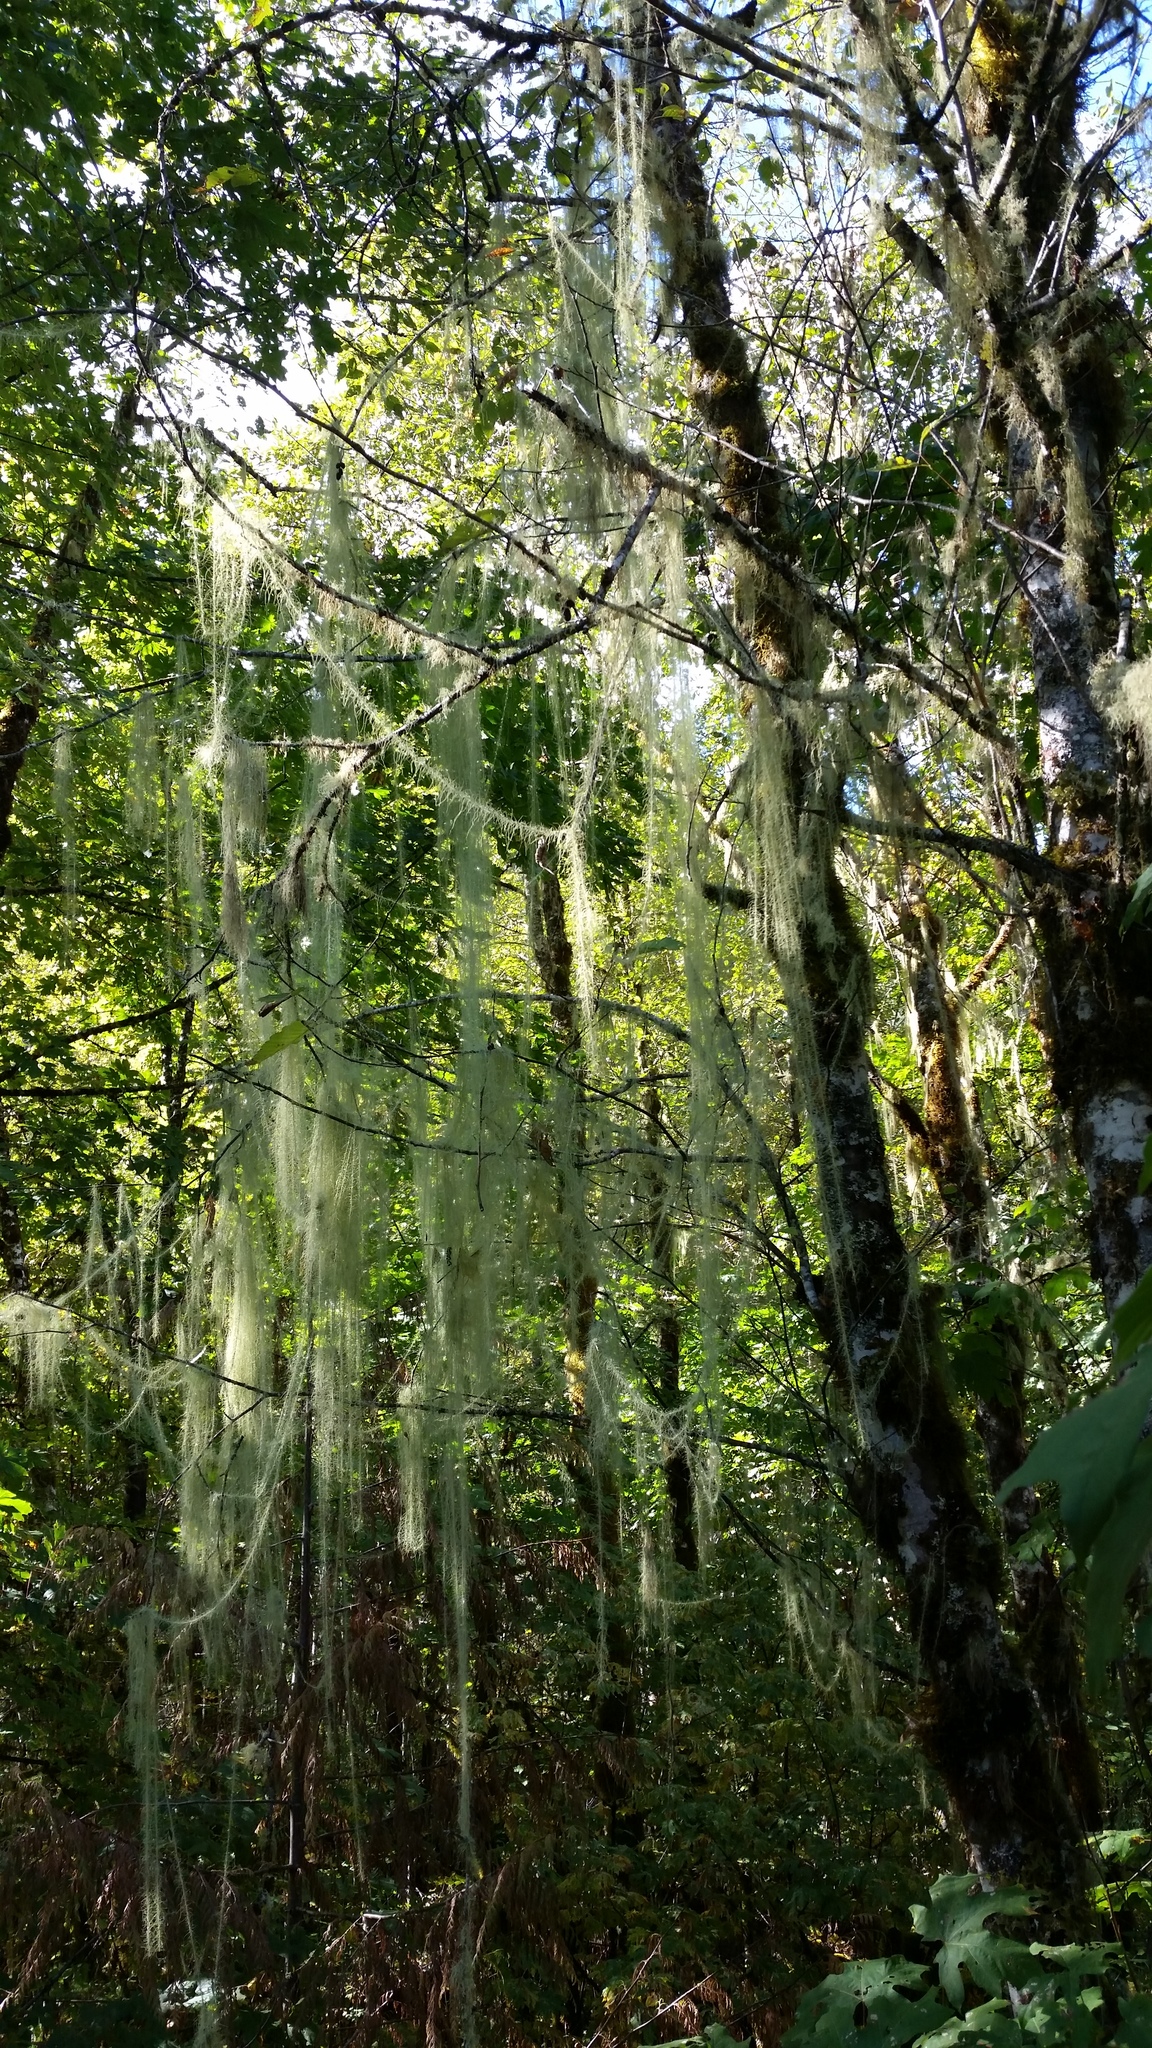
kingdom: Fungi
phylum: Ascomycota
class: Lecanoromycetes
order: Lecanorales
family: Parmeliaceae
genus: Dolichousnea
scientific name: Dolichousnea longissima
